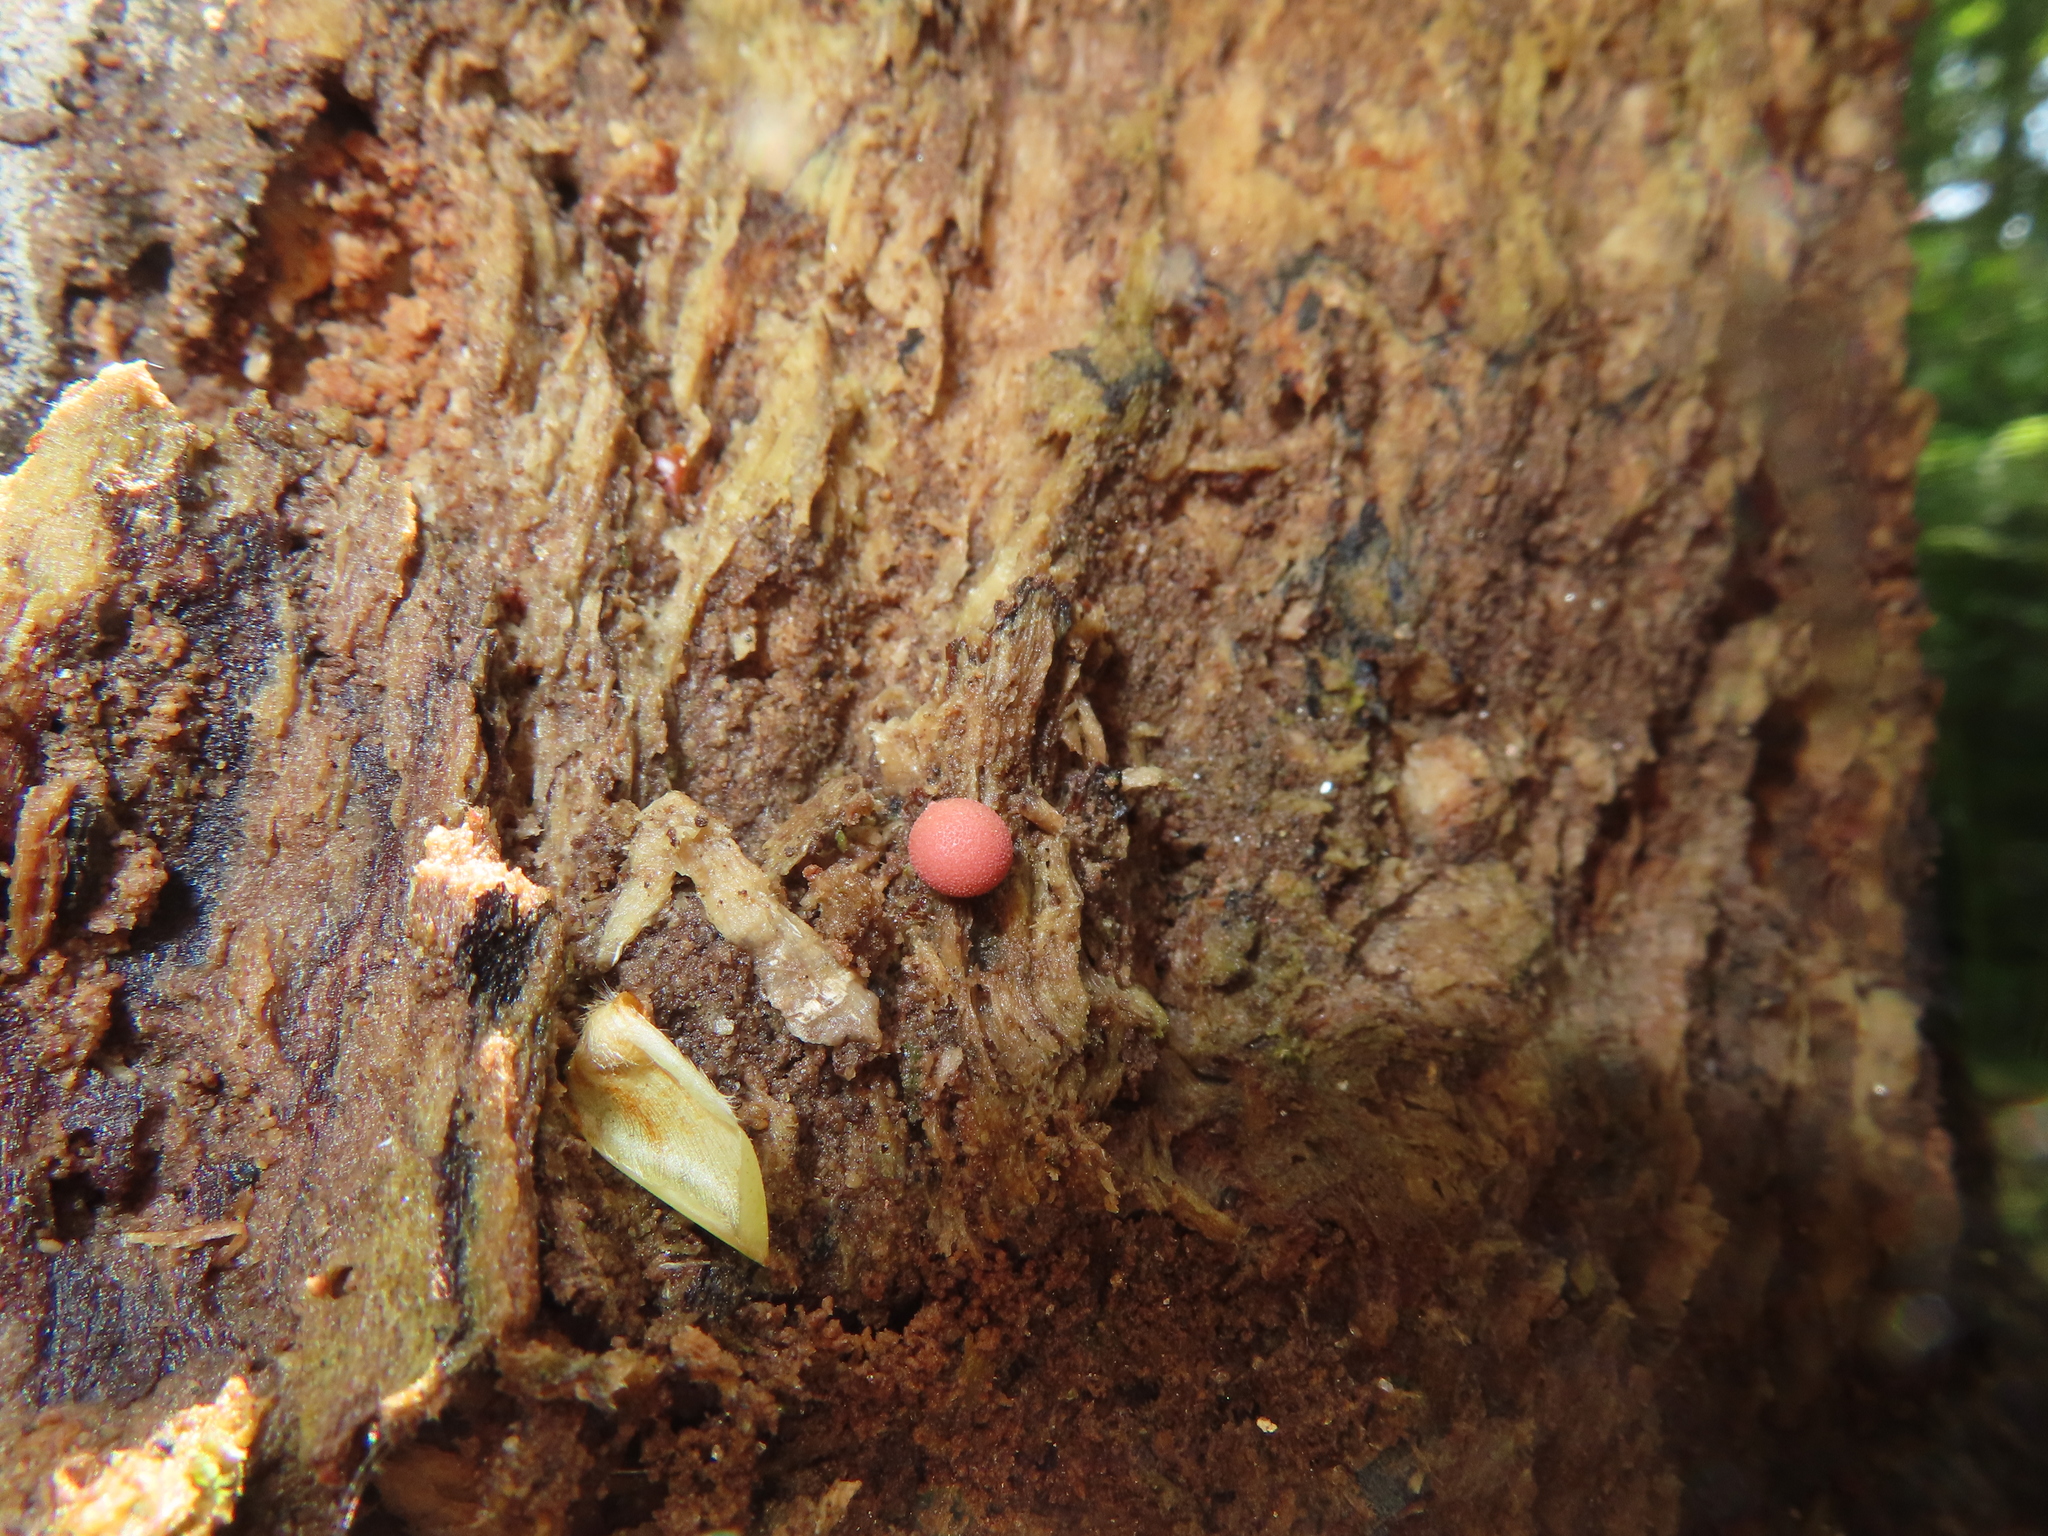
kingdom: Protozoa
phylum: Mycetozoa
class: Myxomycetes
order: Cribrariales
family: Tubiferaceae
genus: Lycogala
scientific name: Lycogala epidendrum
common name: Wolf's milk
